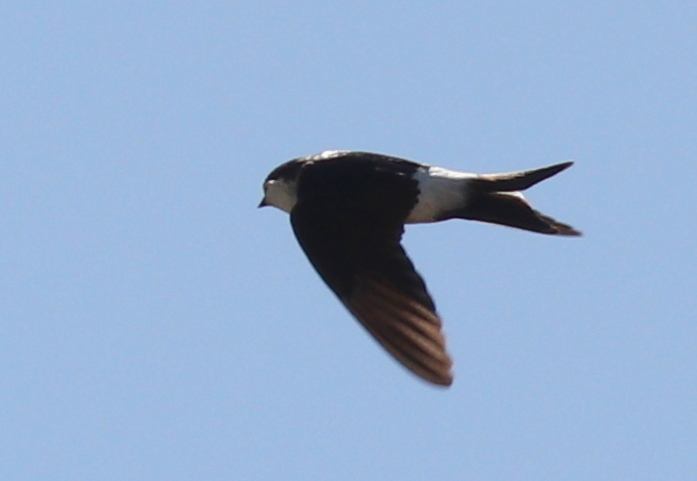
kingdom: Animalia
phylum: Chordata
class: Aves
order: Passeriformes
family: Hirundinidae
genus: Delichon
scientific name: Delichon urbicum
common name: Common house martin
